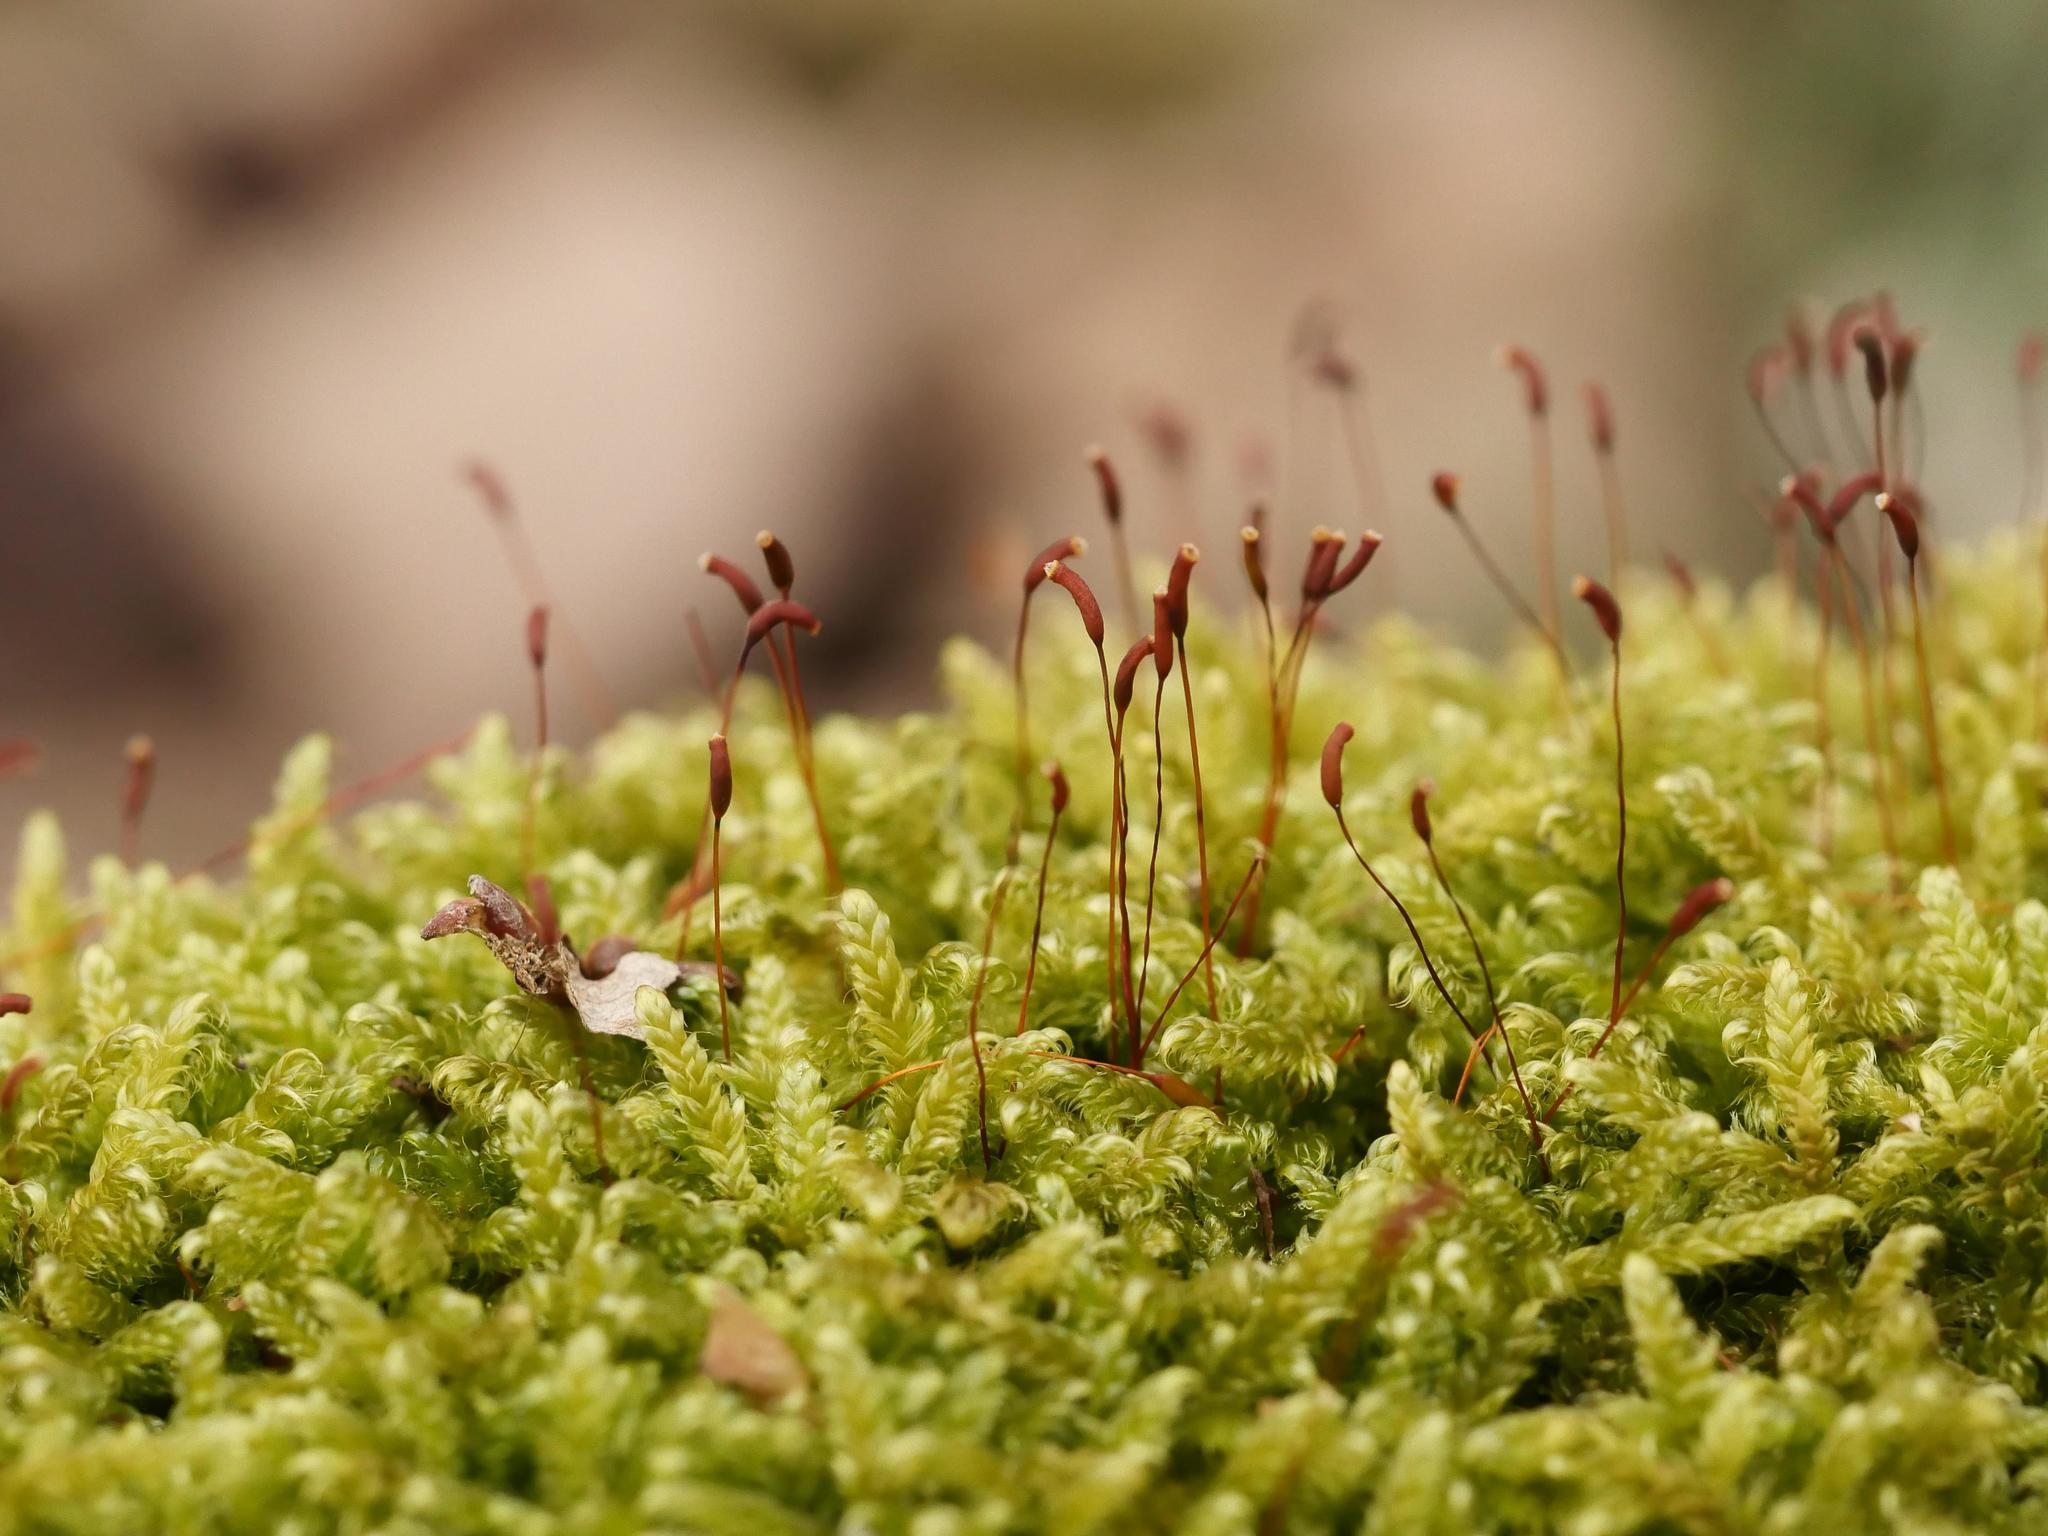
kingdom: Plantae
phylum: Bryophyta
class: Bryopsida
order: Hypnales
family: Hypnaceae
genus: Hypnum
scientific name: Hypnum cupressiforme
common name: Cypress-leaved plait-moss
